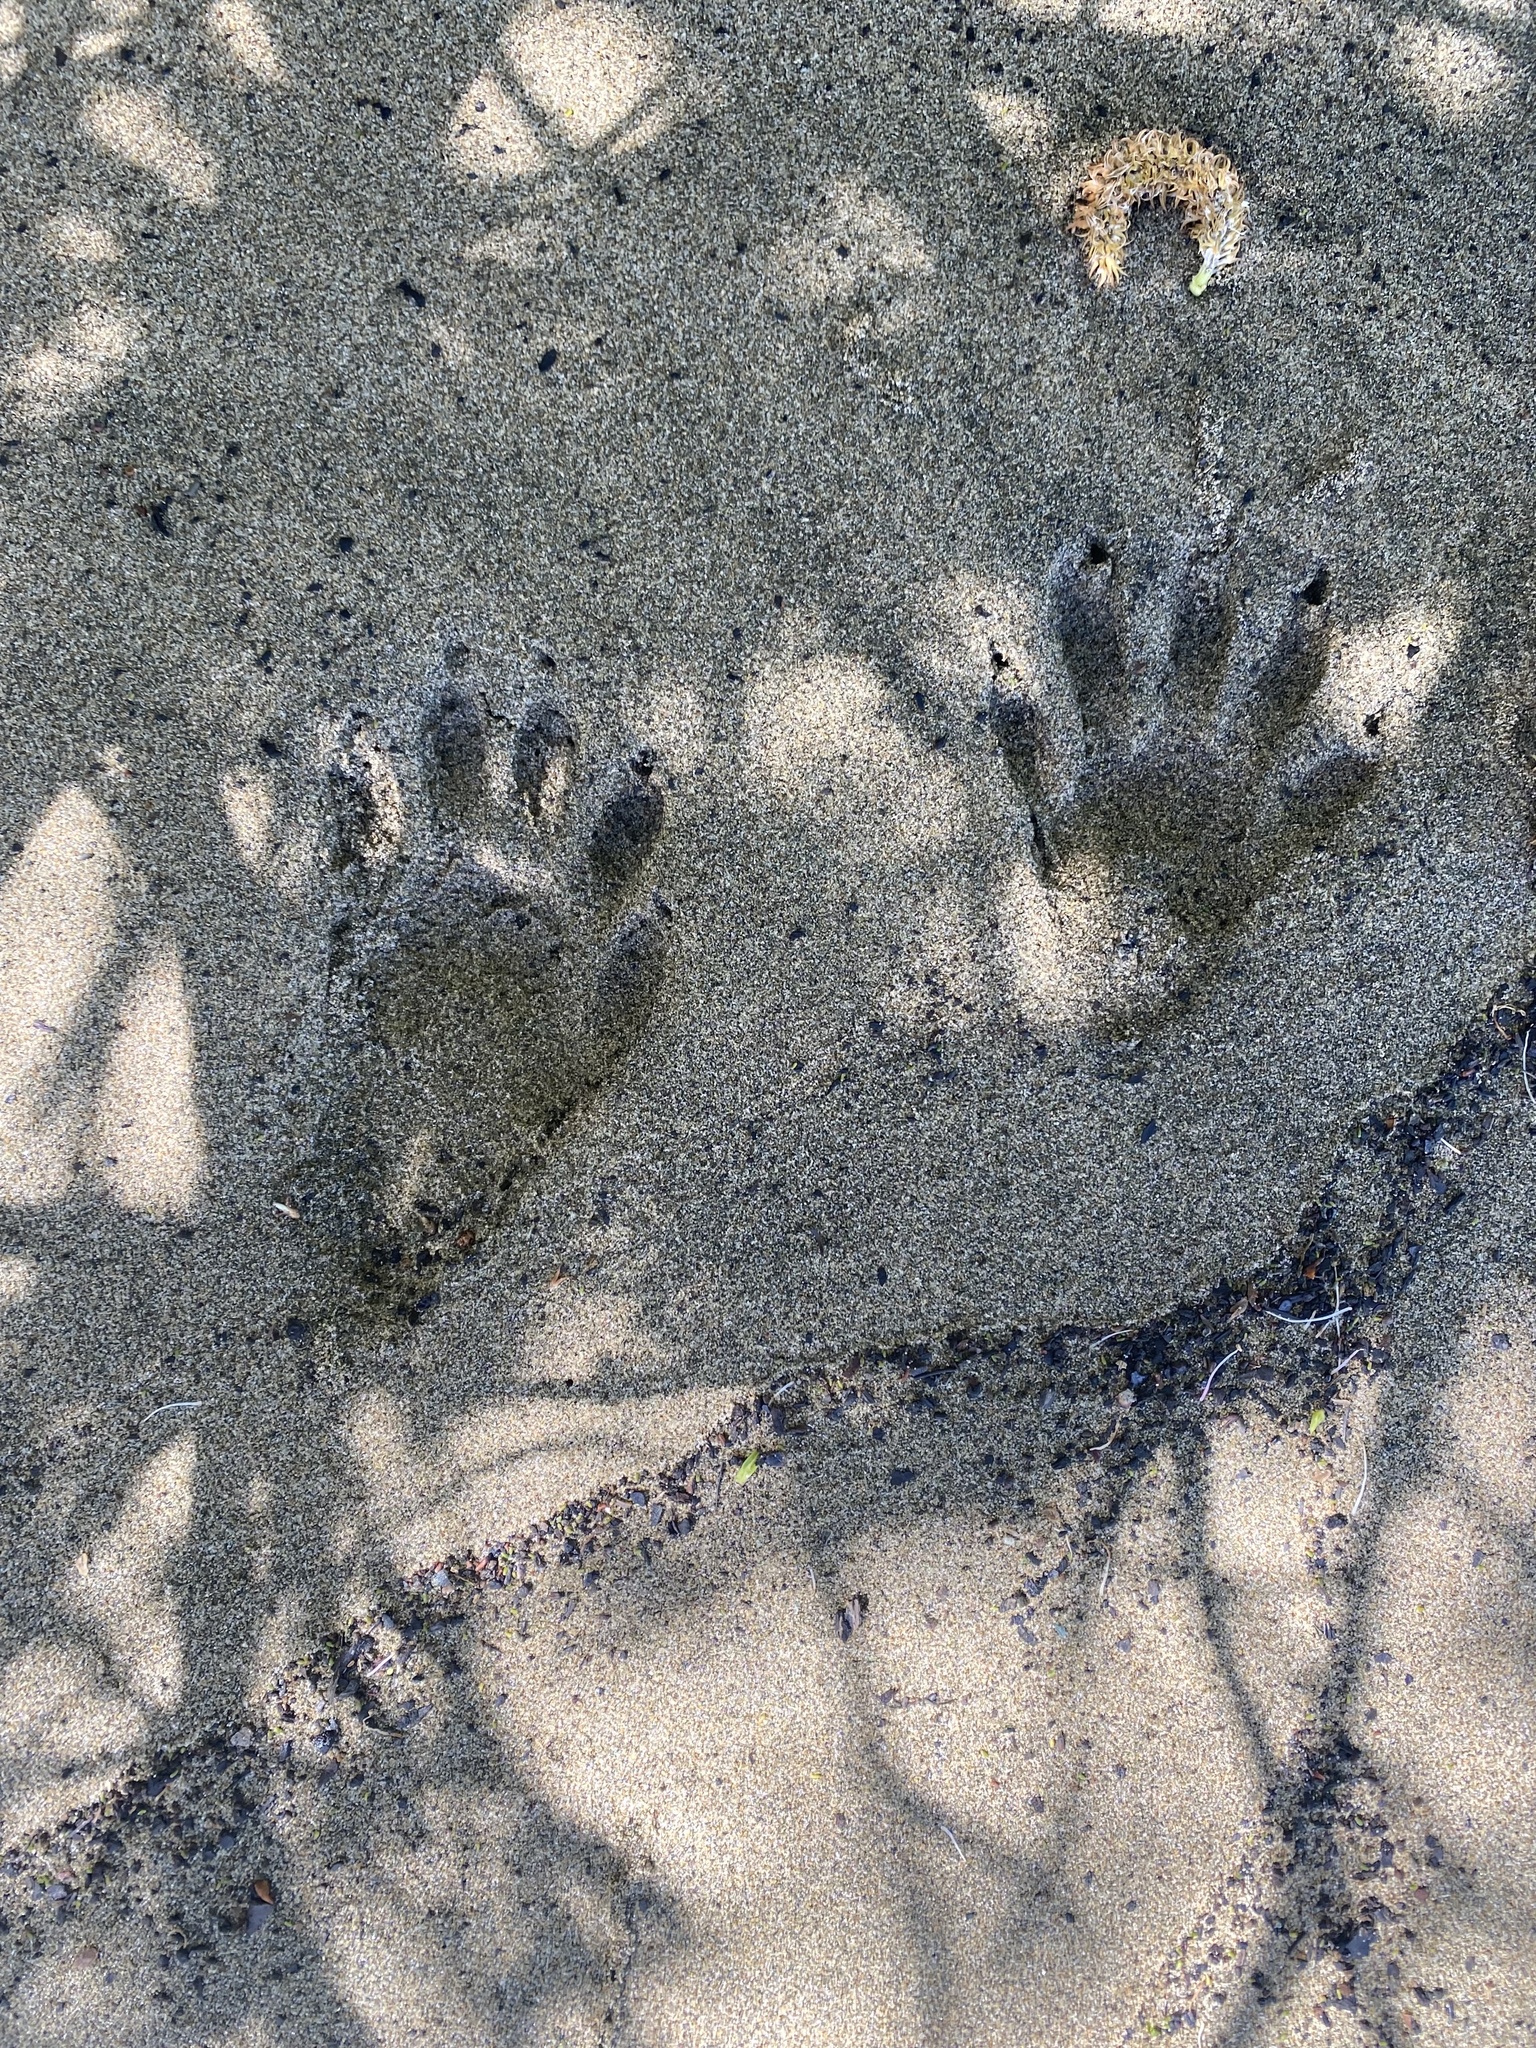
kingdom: Animalia
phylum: Chordata
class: Mammalia
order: Carnivora
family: Procyonidae
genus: Procyon
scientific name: Procyon lotor
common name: Raccoon
